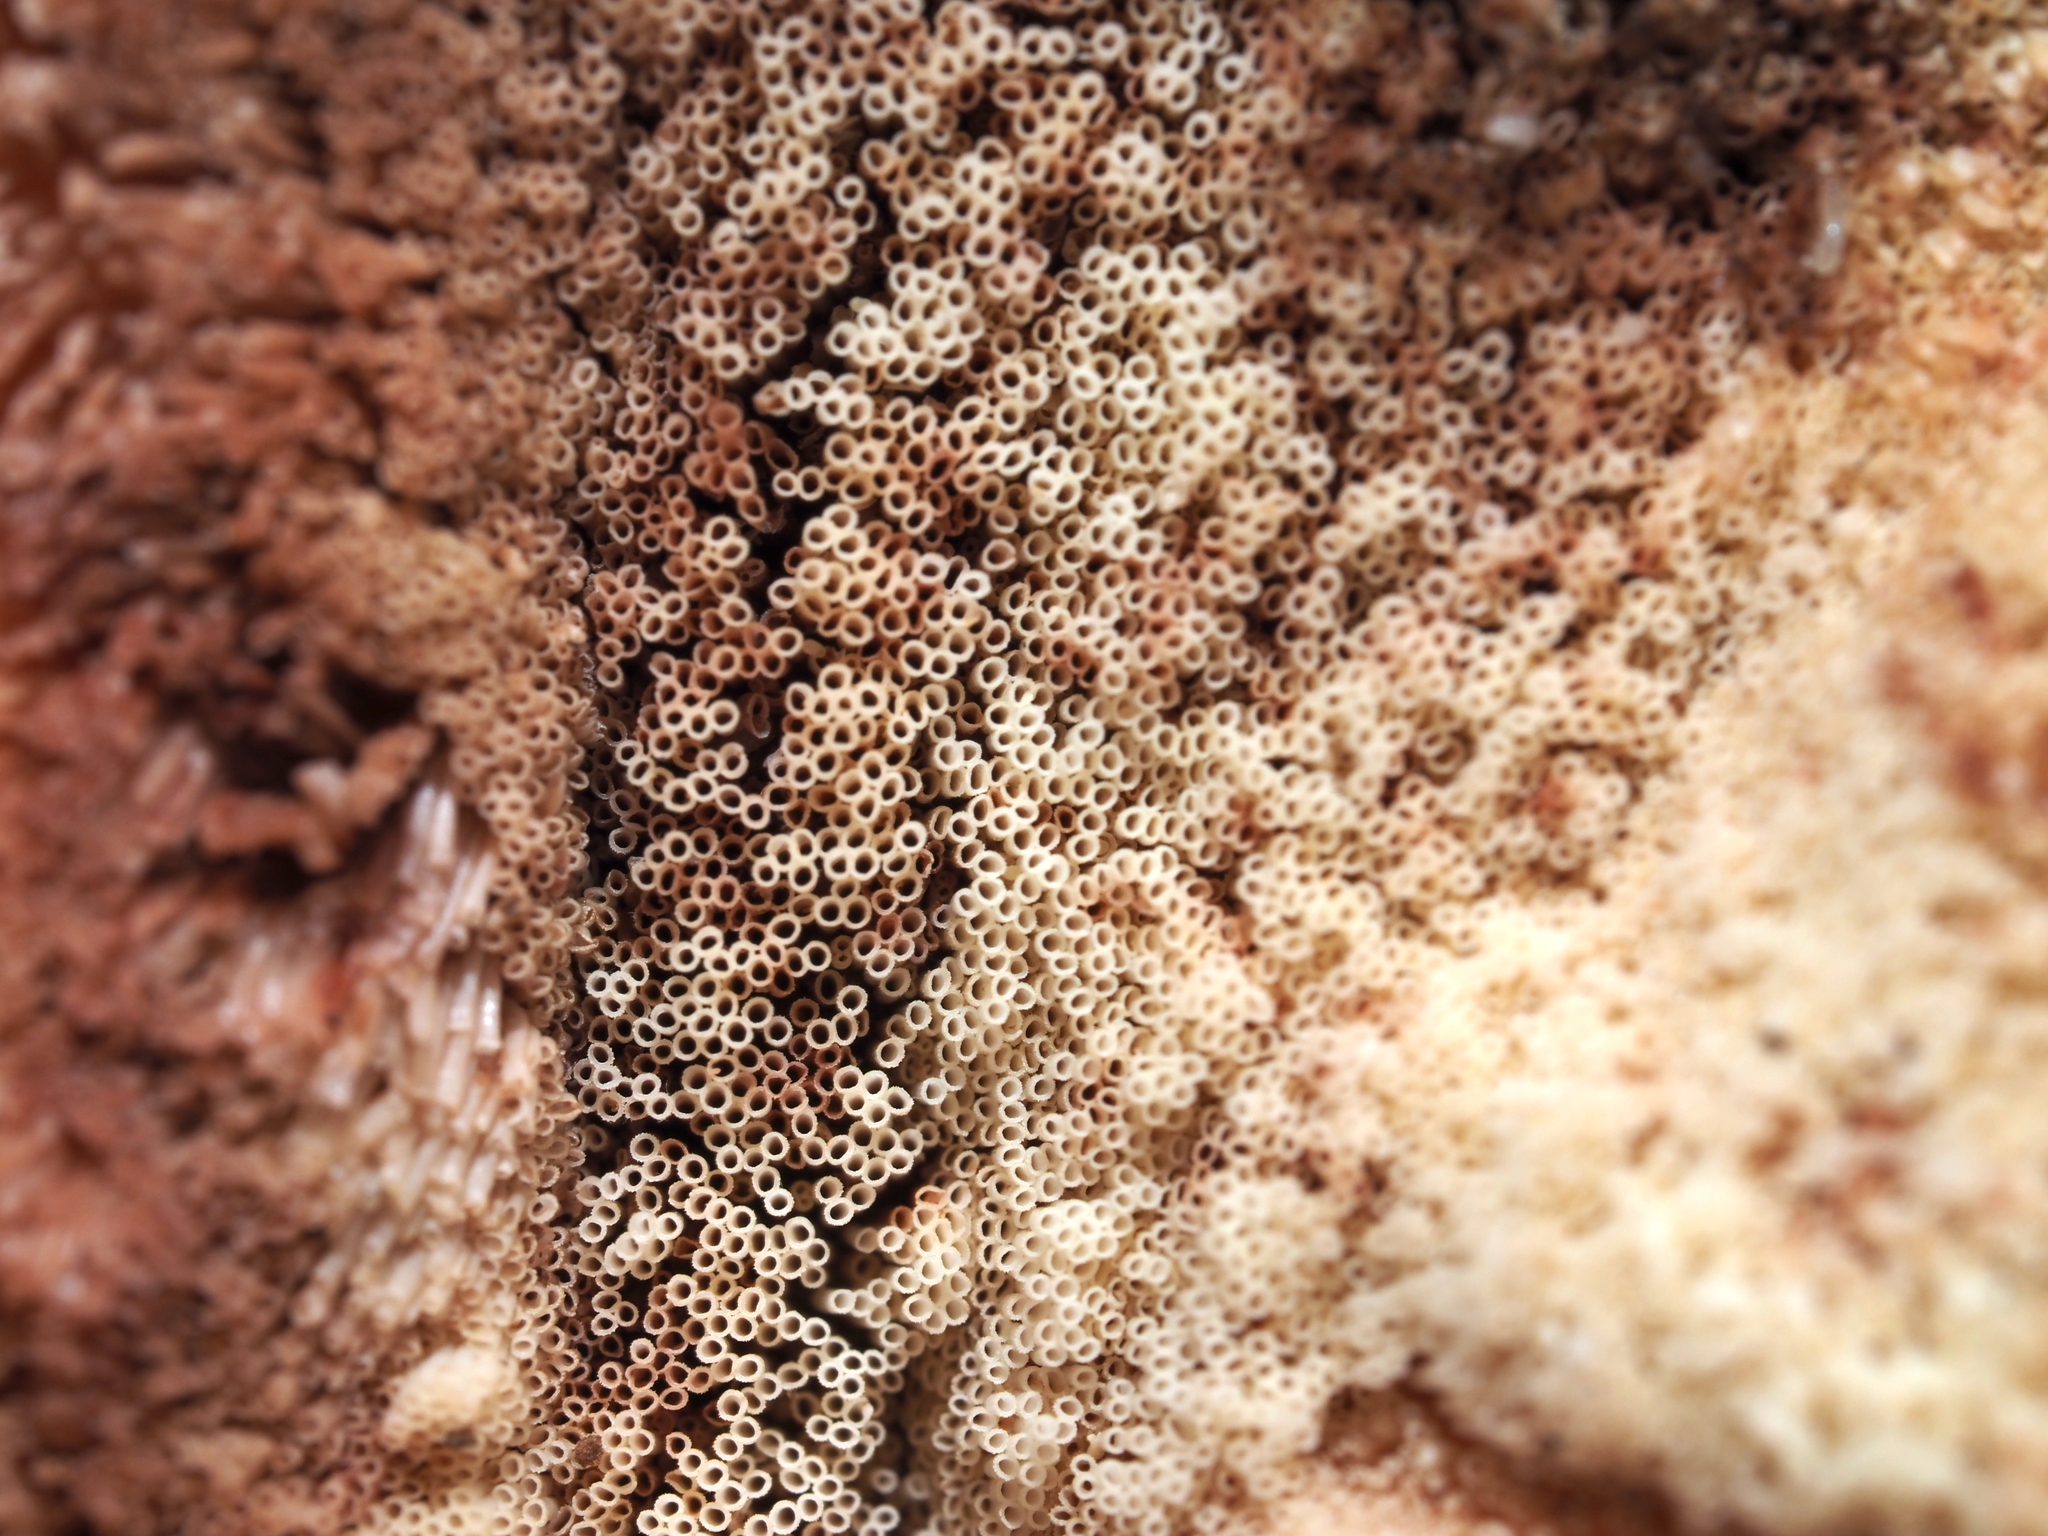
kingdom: Fungi
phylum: Basidiomycota
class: Agaricomycetes
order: Agaricales
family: Fistulinaceae
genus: Fistulina
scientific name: Fistulina hepatica
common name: Beef-steak fungus
